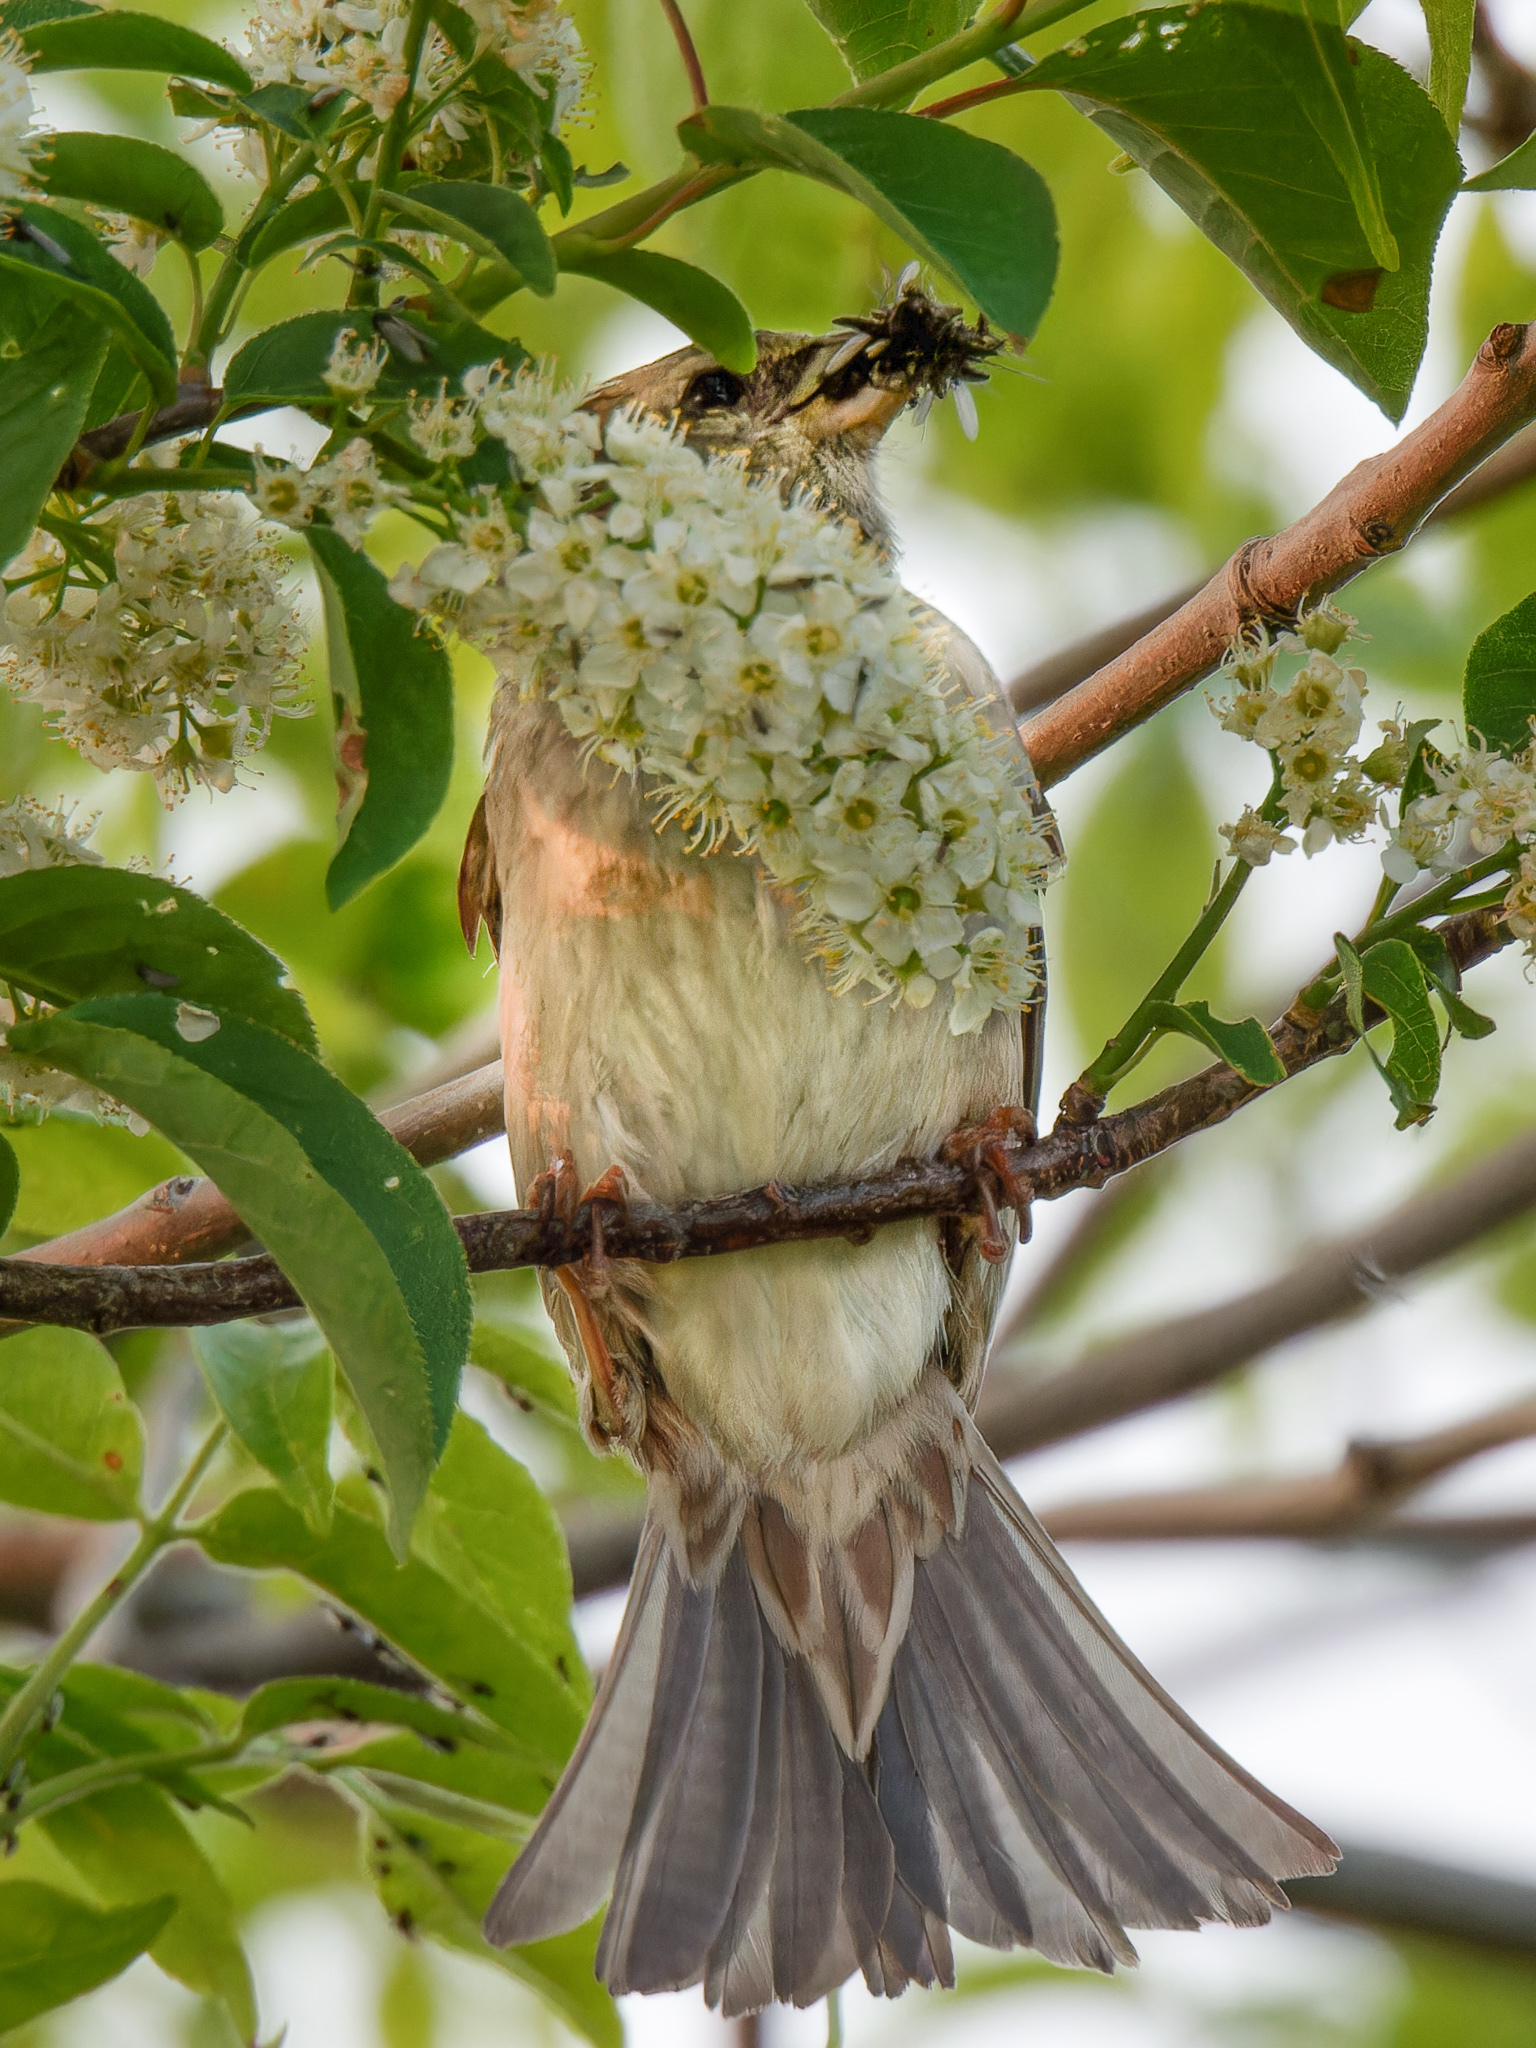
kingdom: Animalia
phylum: Chordata
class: Aves
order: Passeriformes
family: Passeridae
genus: Passer
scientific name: Passer domesticus
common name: House sparrow
